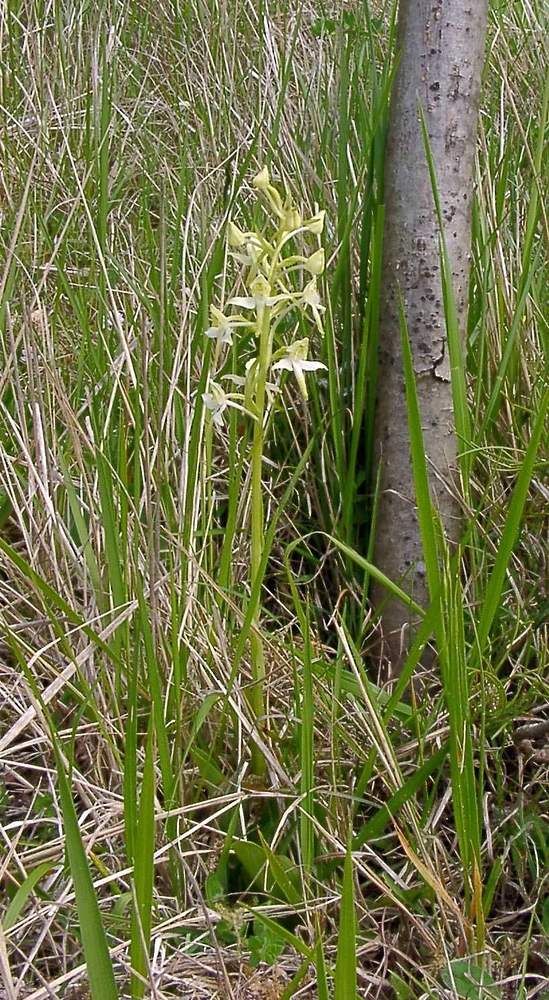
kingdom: Plantae
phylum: Tracheophyta
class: Liliopsida
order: Asparagales
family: Orchidaceae
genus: Platanthera
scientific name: Platanthera chlorantha
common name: Greater butterfly-orchid
